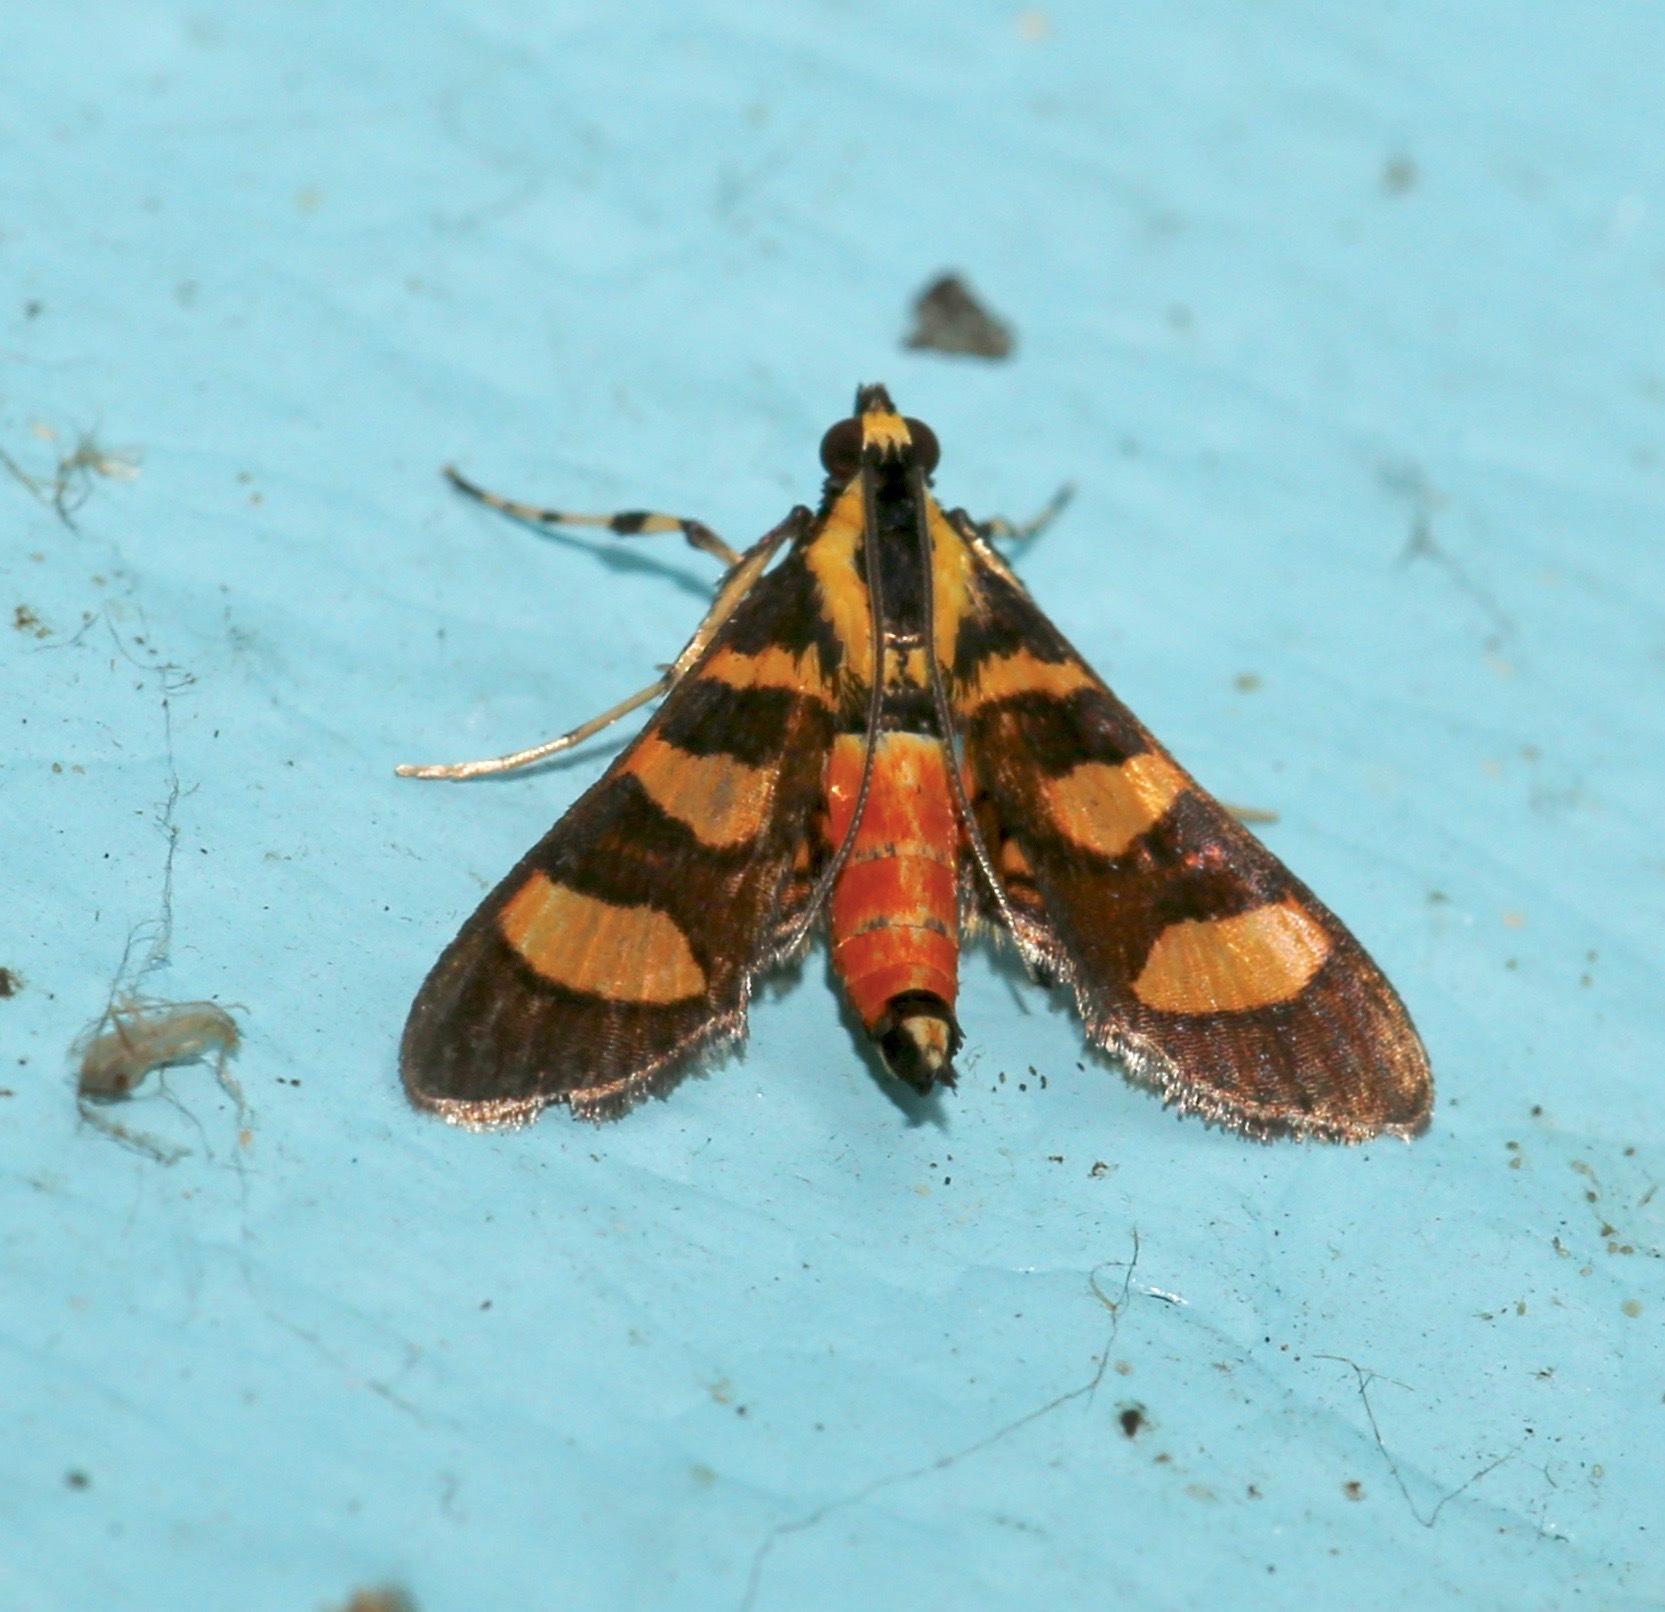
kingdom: Animalia
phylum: Arthropoda
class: Insecta
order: Lepidoptera
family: Crambidae
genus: Syngamia
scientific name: Syngamia florella
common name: Orange-spotted flower moth
